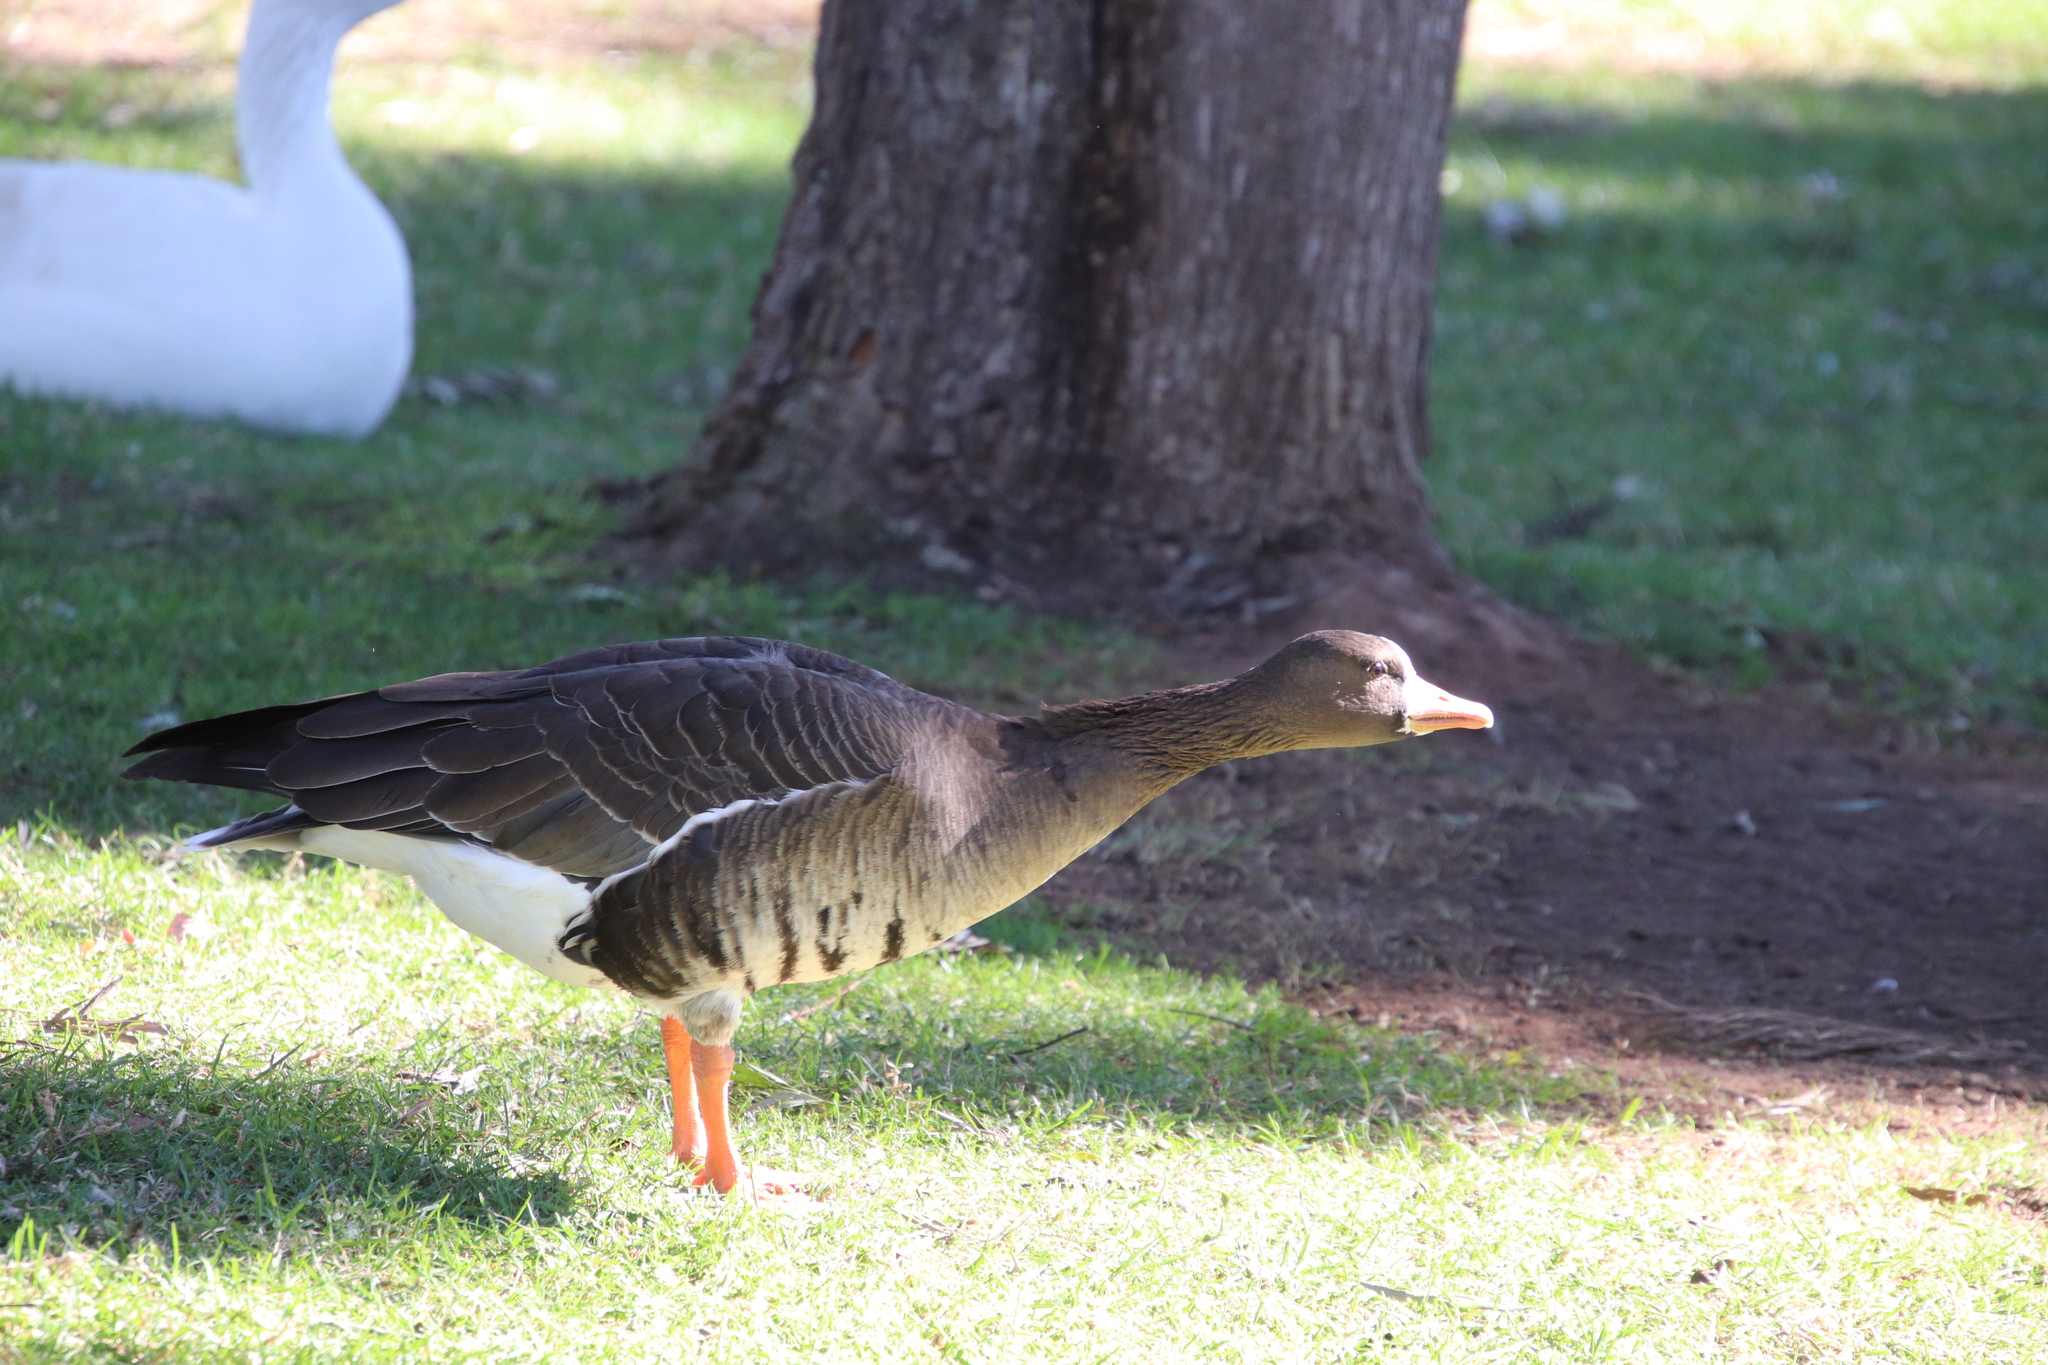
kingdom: Animalia
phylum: Chordata
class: Aves
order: Anseriformes
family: Anatidae
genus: Anser
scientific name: Anser albifrons
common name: Greater white-fronted goose
